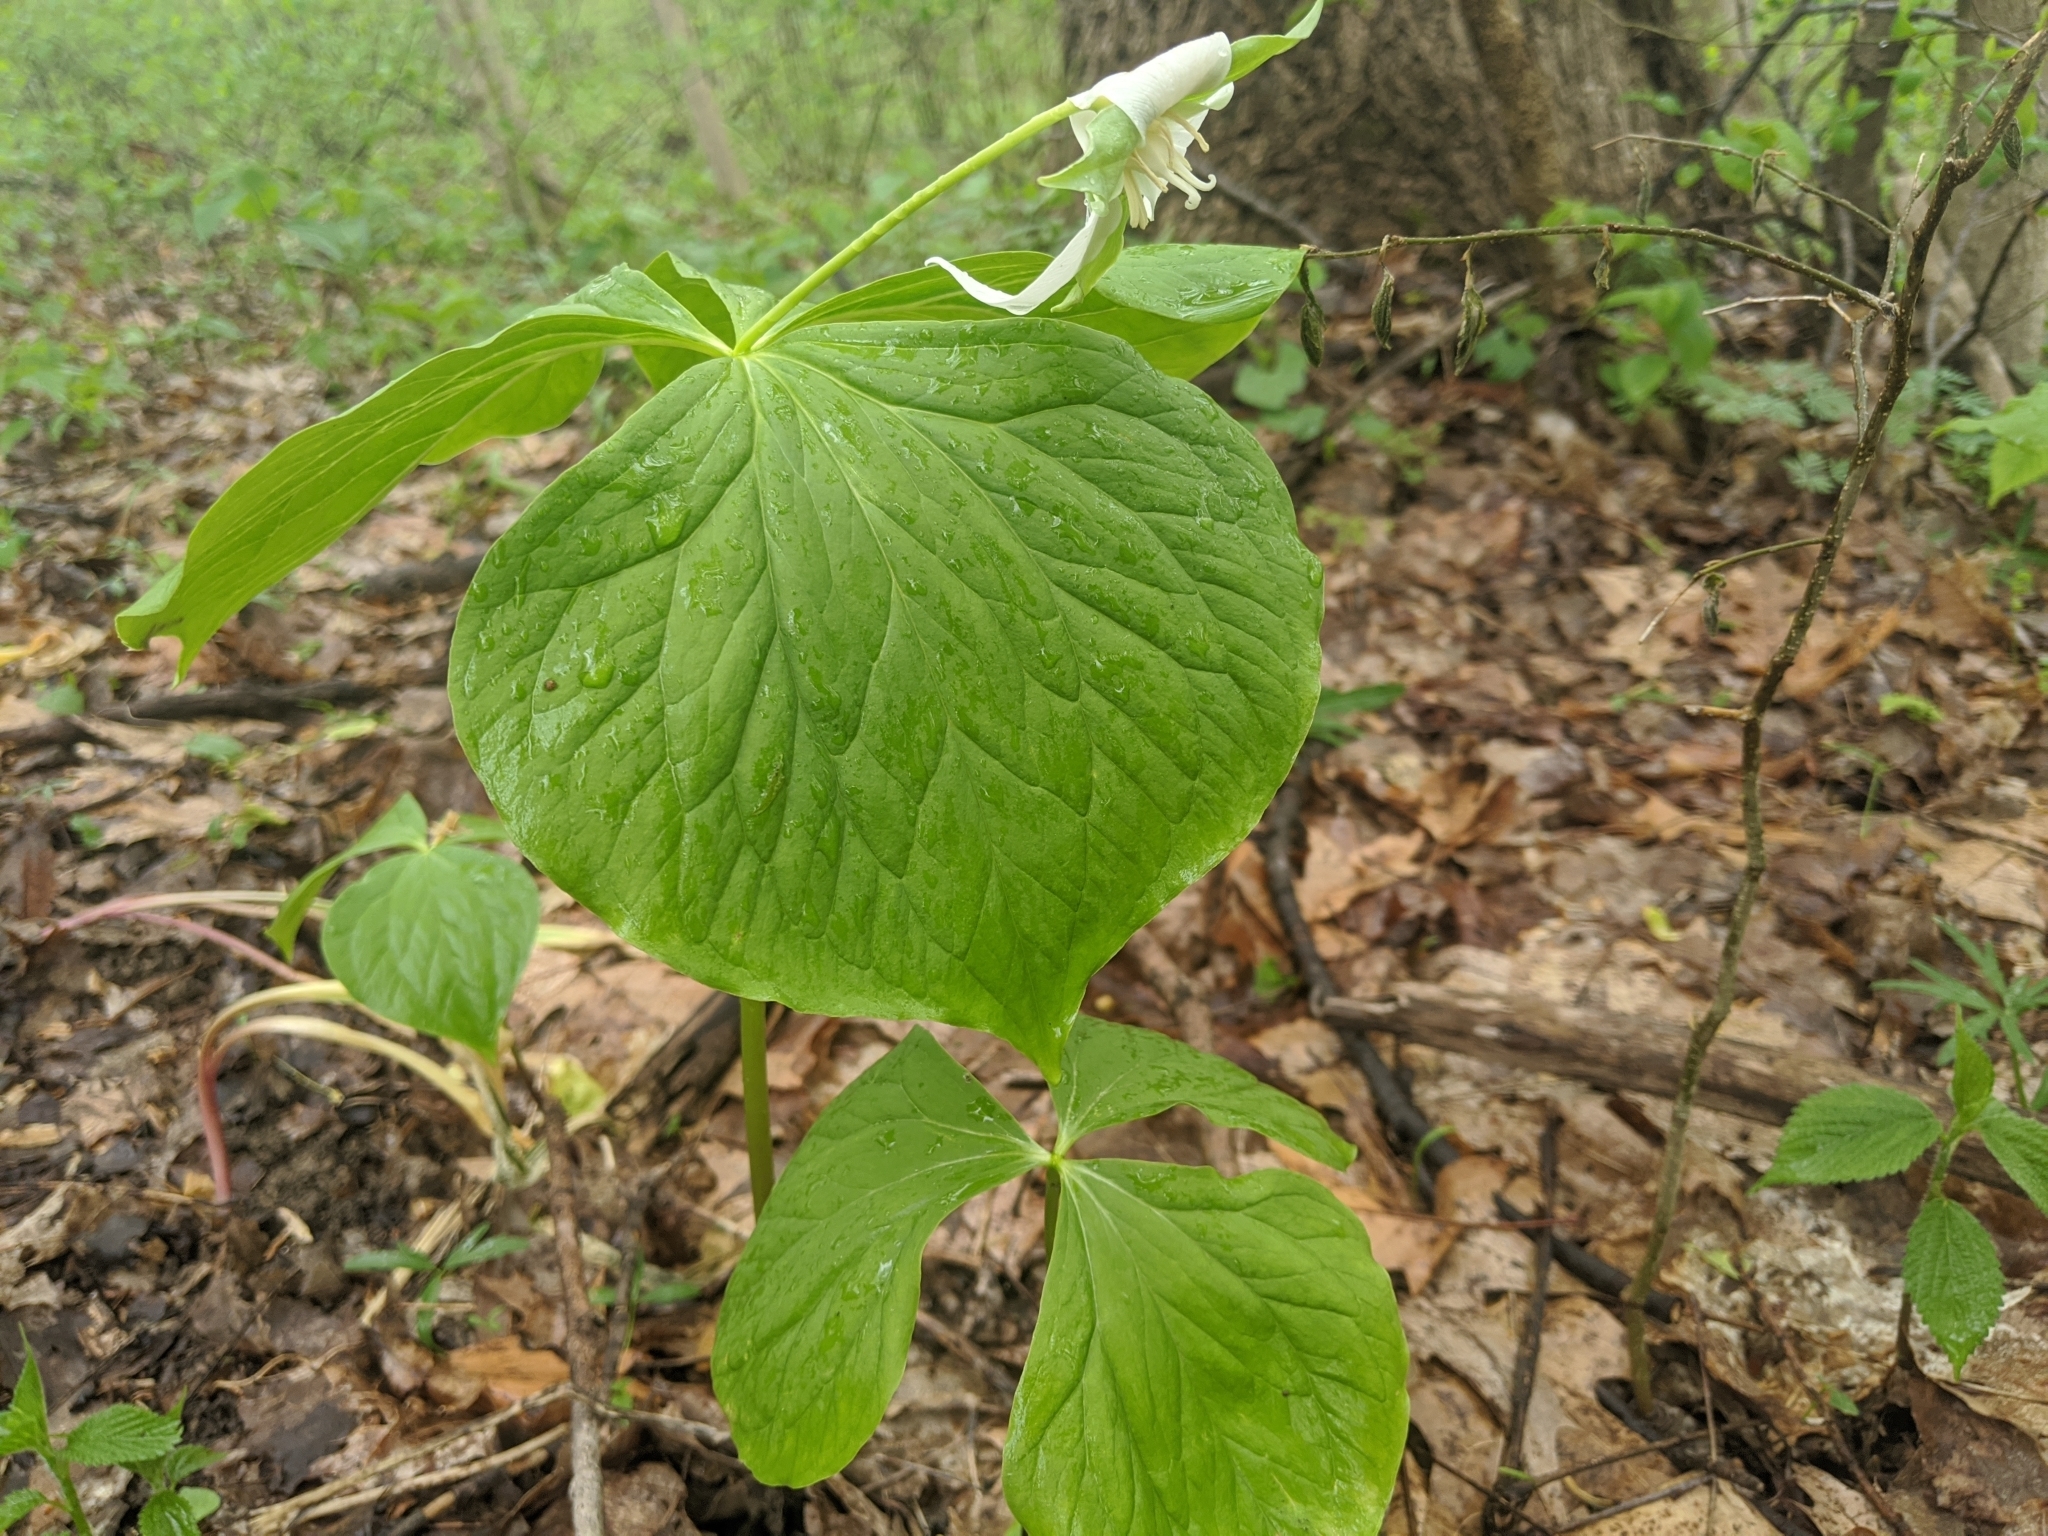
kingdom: Plantae
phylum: Tracheophyta
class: Liliopsida
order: Liliales
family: Melanthiaceae
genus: Trillium
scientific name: Trillium flexipes
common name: Drooping trillium
